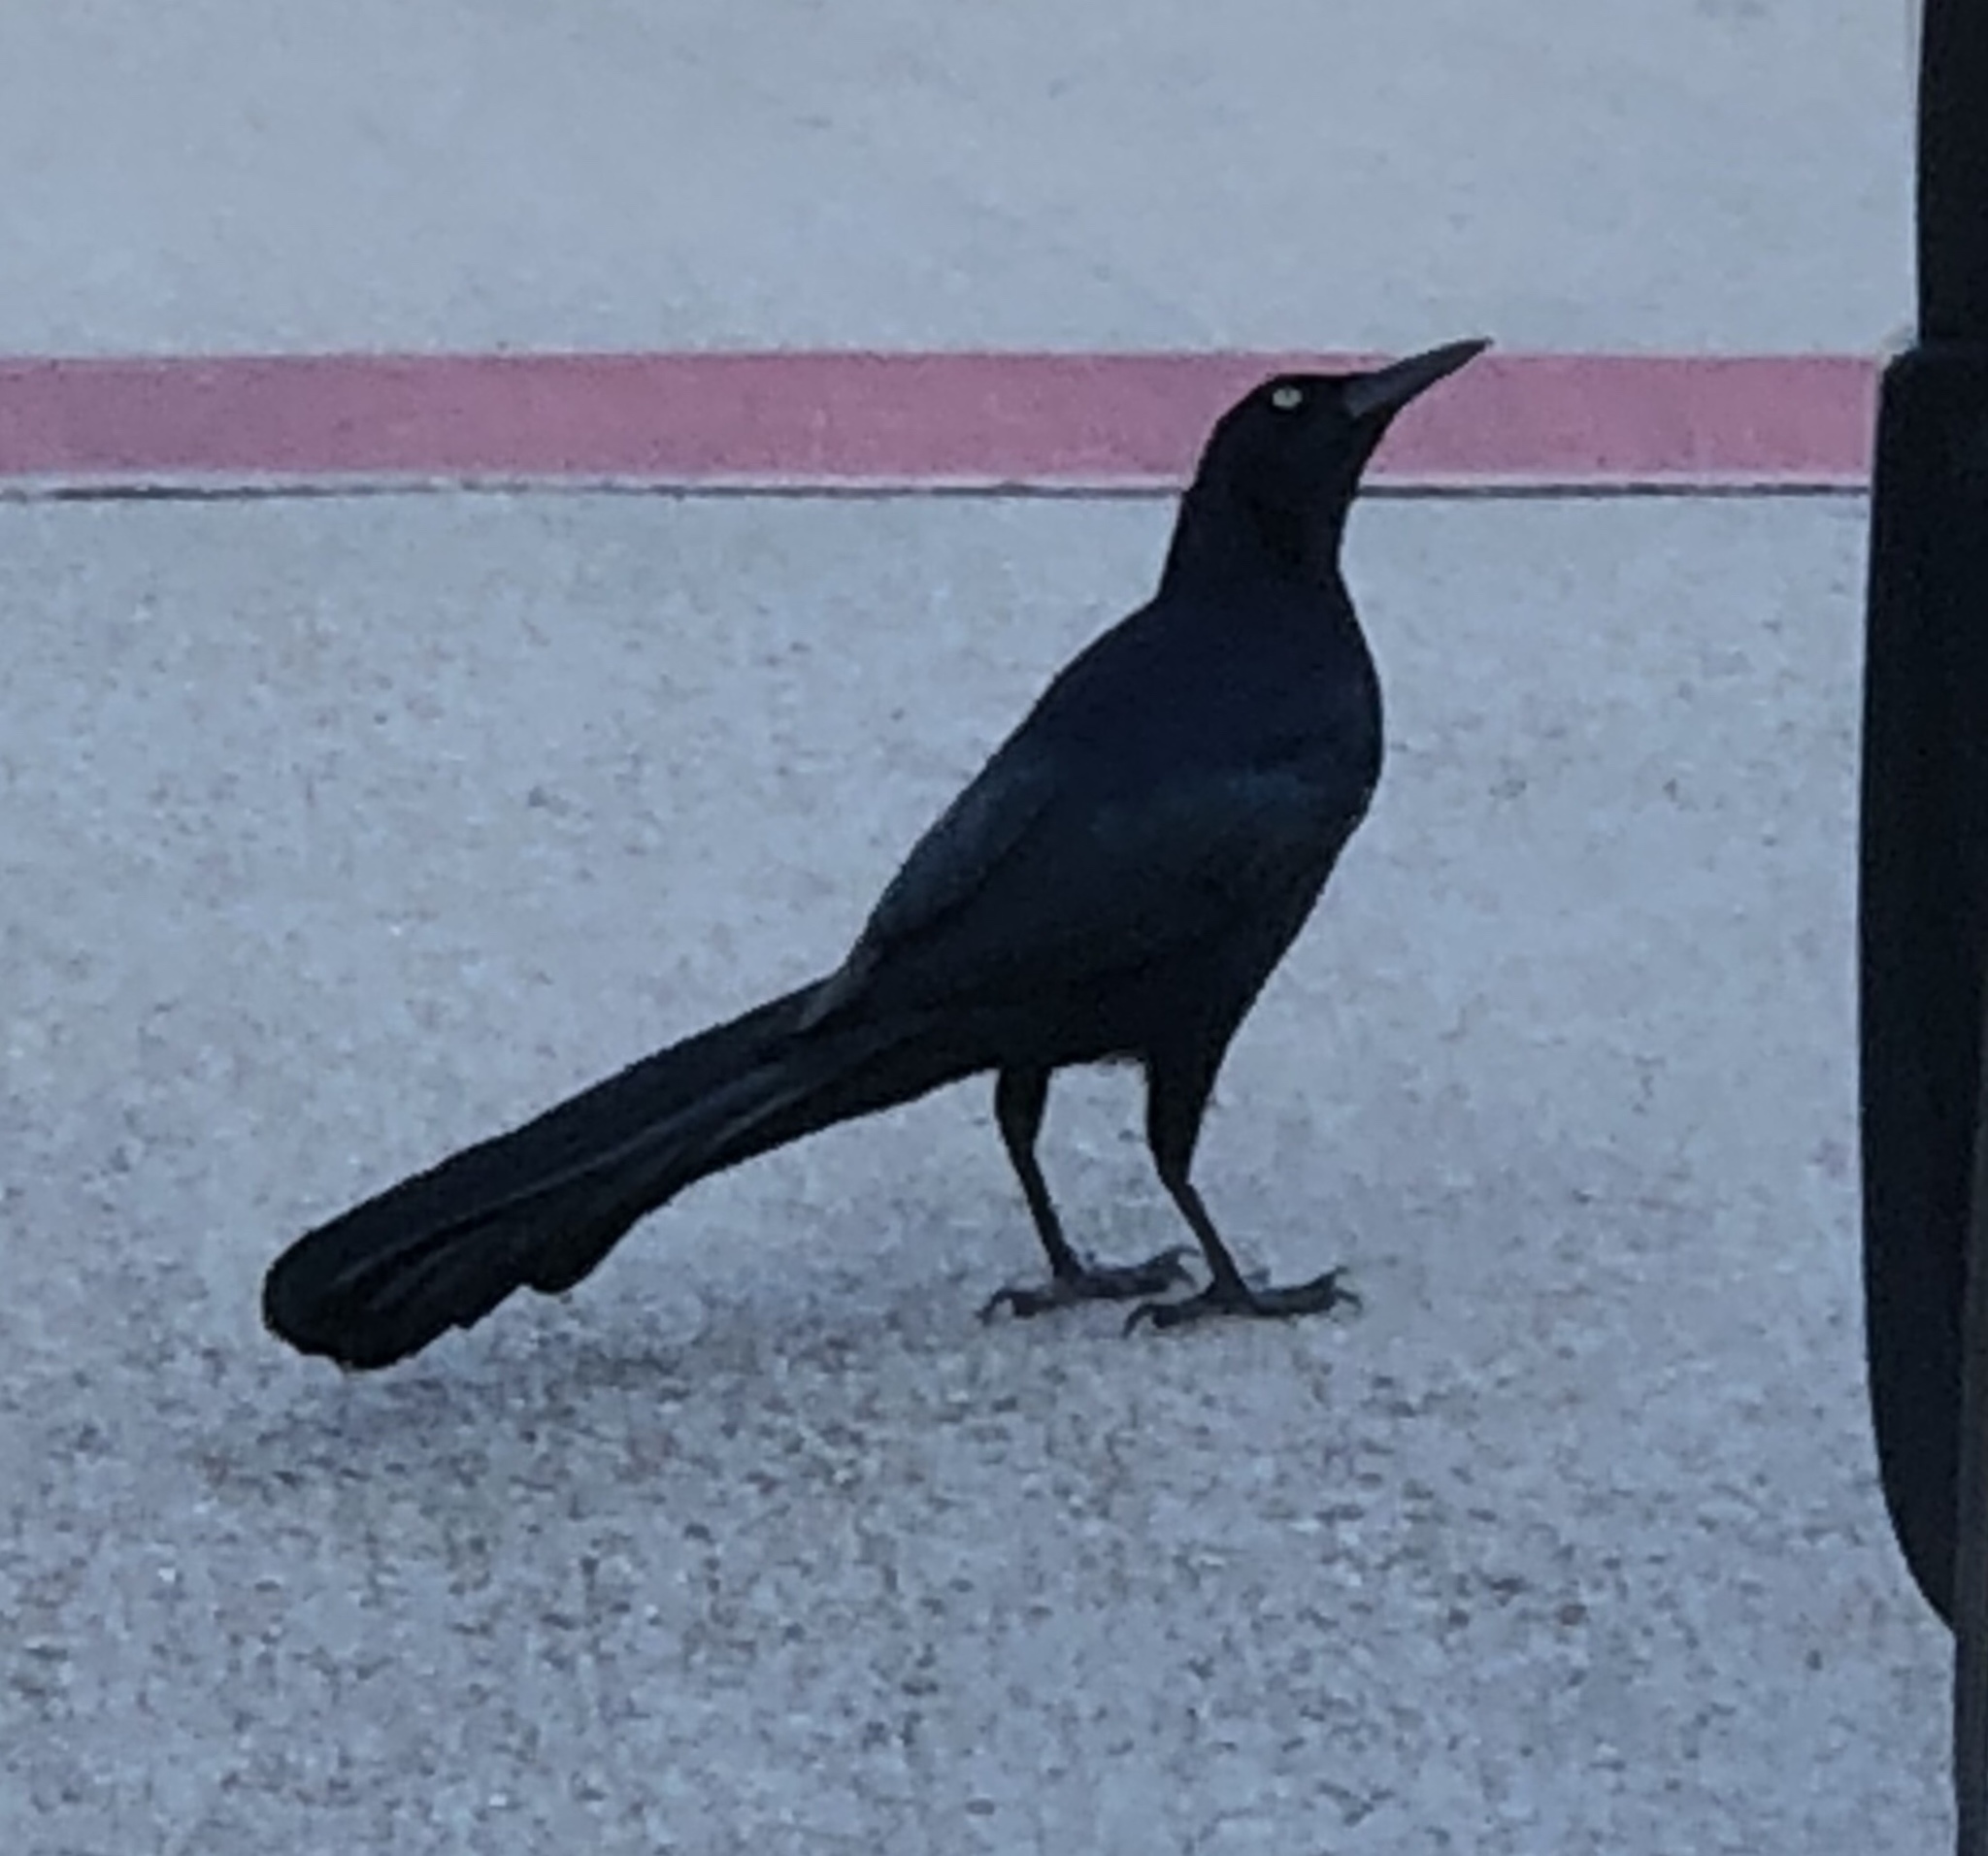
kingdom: Animalia
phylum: Chordata
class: Aves
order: Passeriformes
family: Icteridae
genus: Quiscalus
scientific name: Quiscalus mexicanus
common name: Great-tailed grackle
